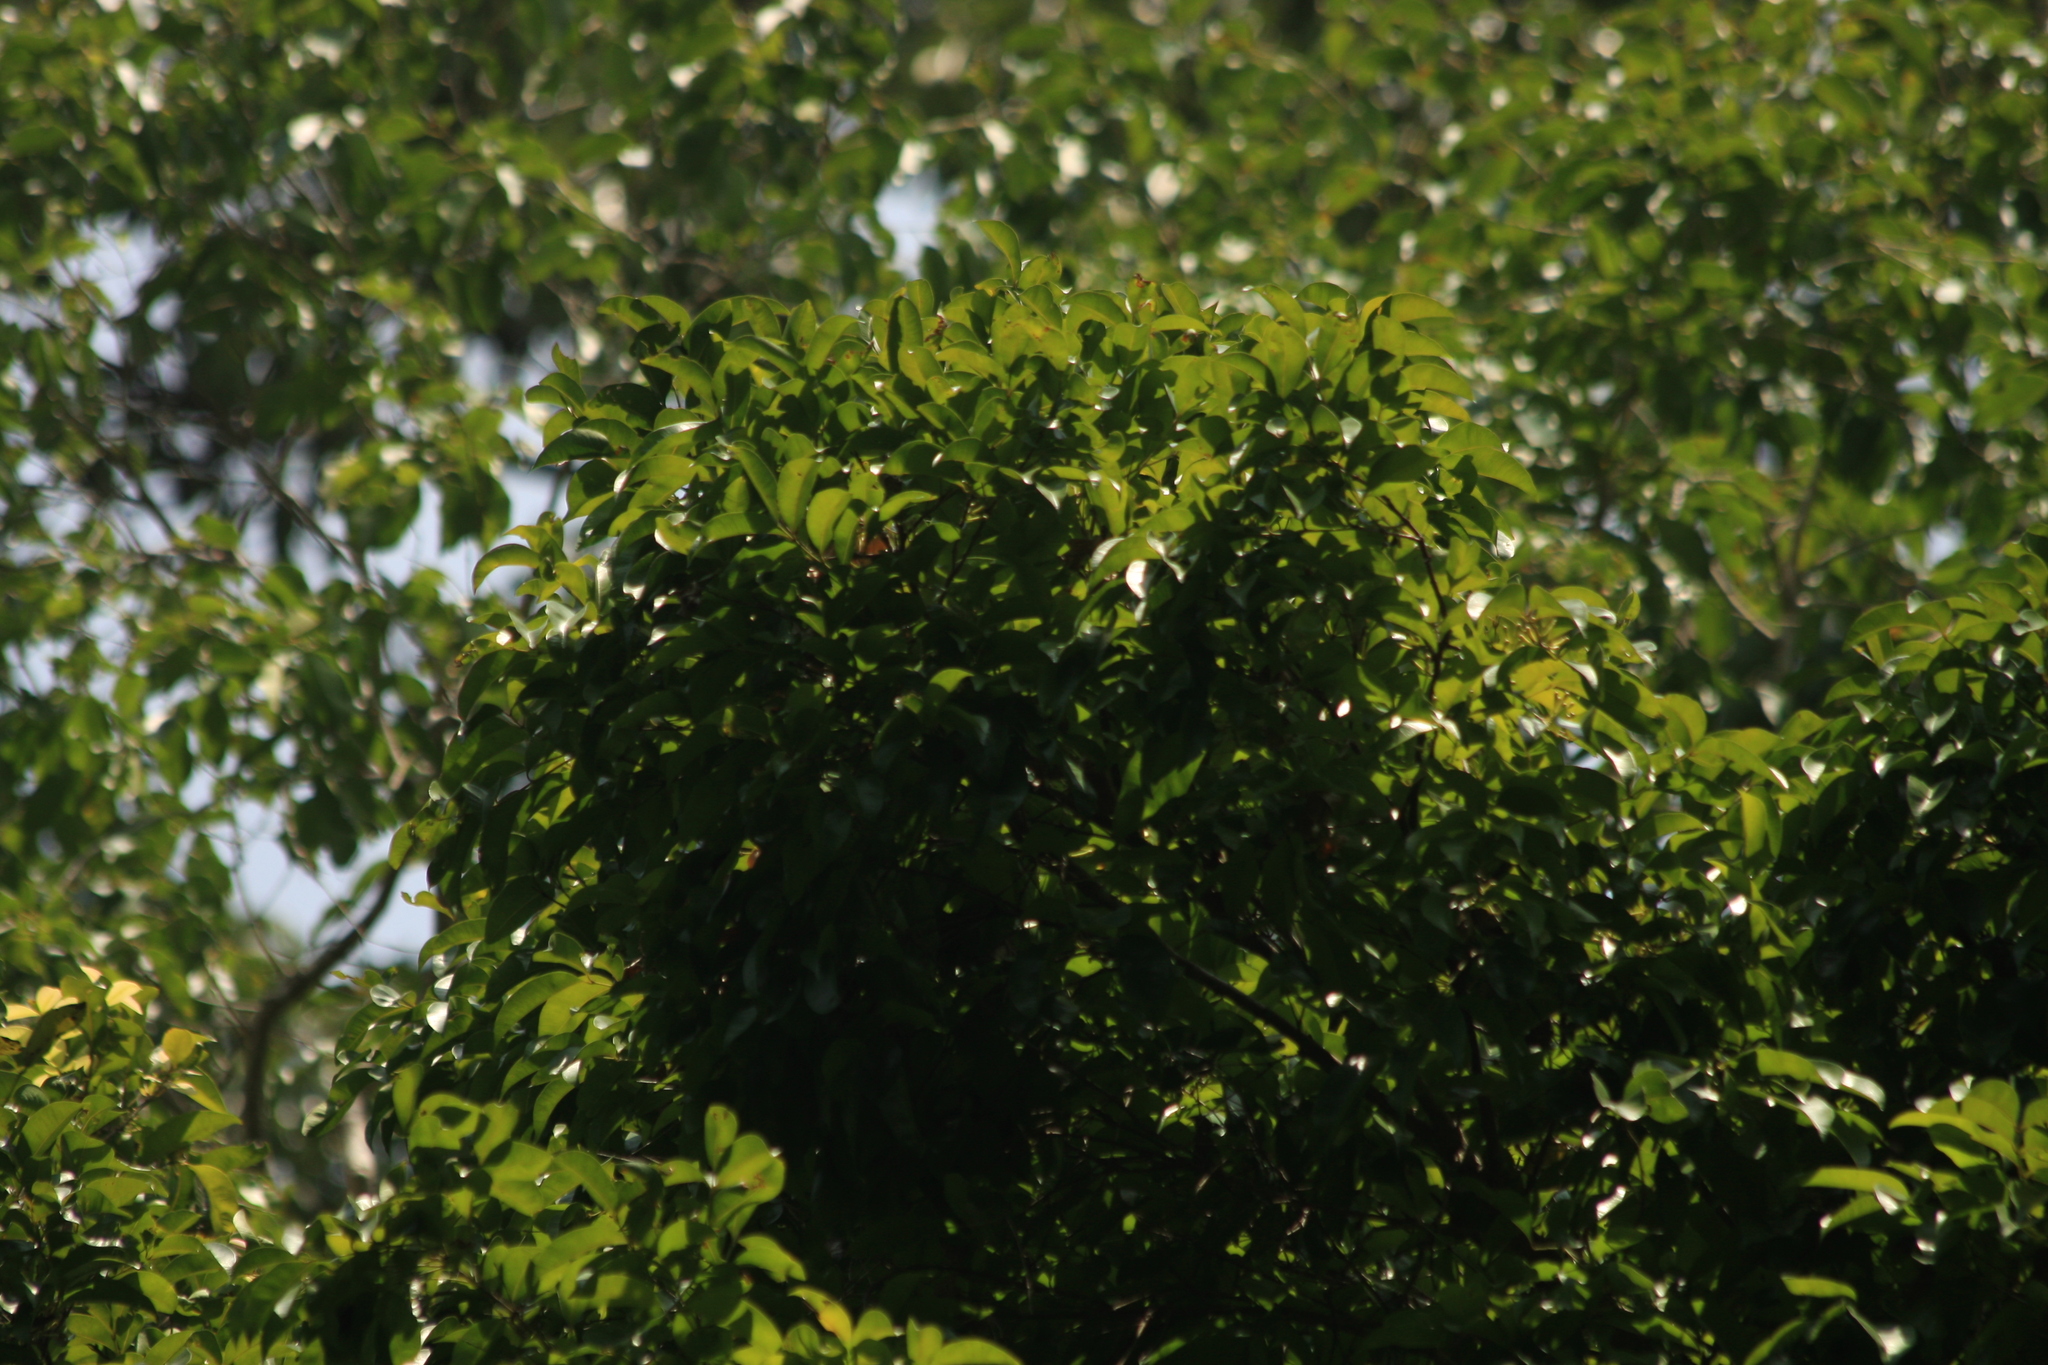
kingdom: Plantae
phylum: Tracheophyta
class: Magnoliopsida
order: Myrtales
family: Myrtaceae
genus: Syzygium
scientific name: Syzygium rubicundum
